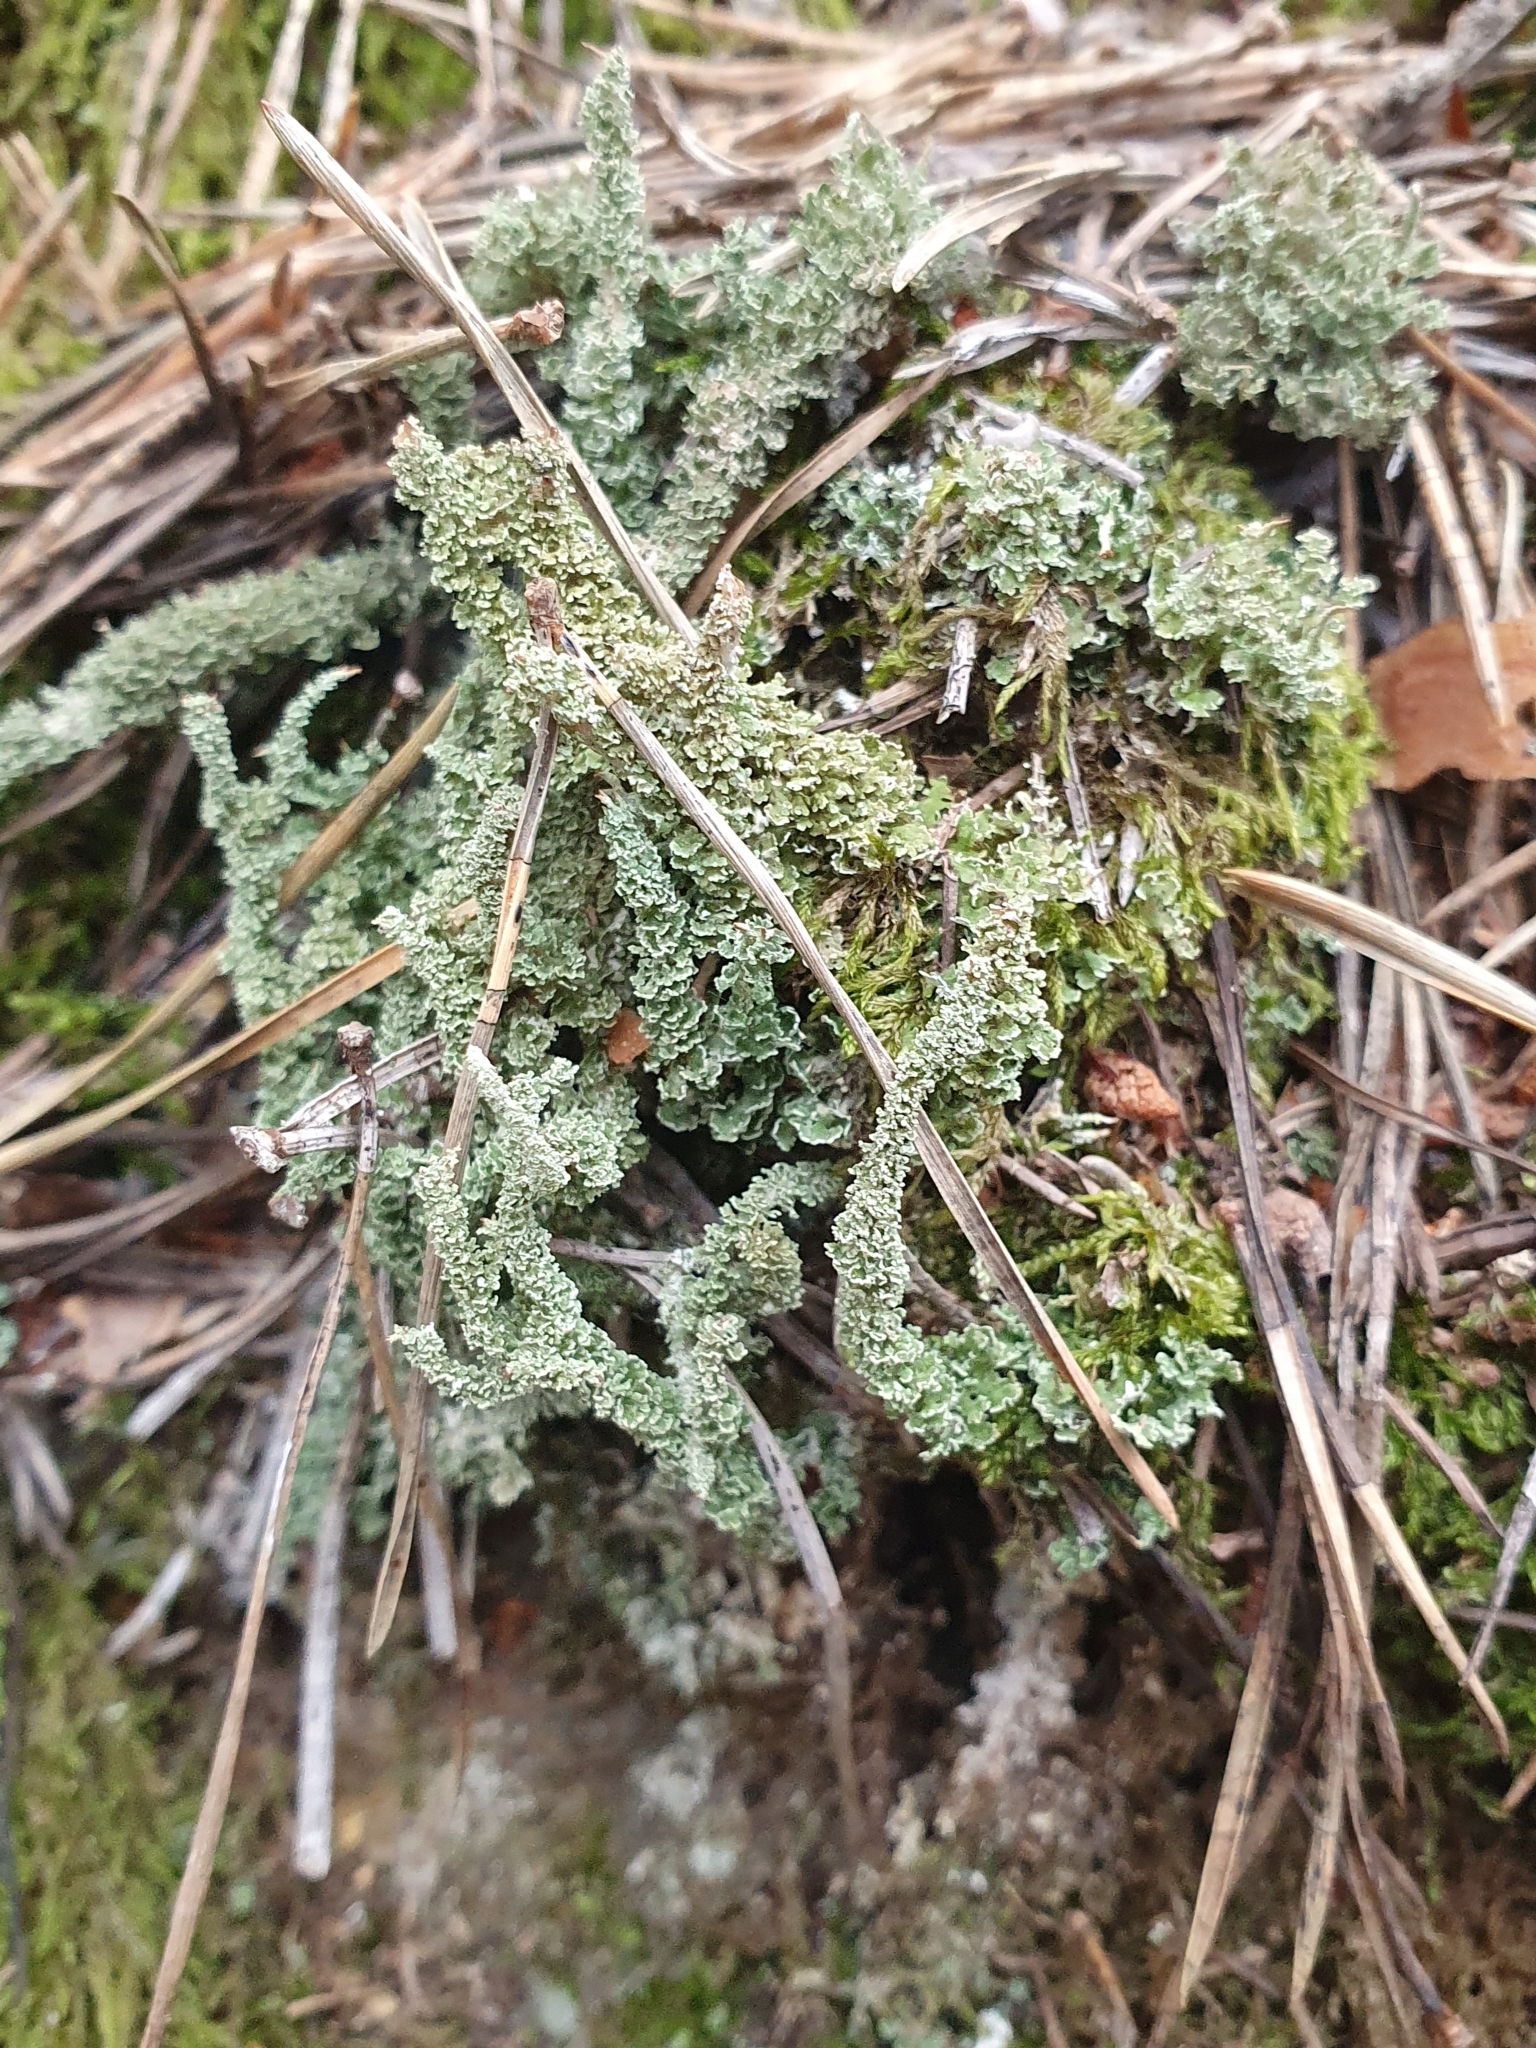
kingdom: Fungi
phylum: Ascomycota
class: Lecanoromycetes
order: Lecanorales
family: Cladoniaceae
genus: Cladonia
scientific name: Cladonia squamosa
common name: Dragon horn
